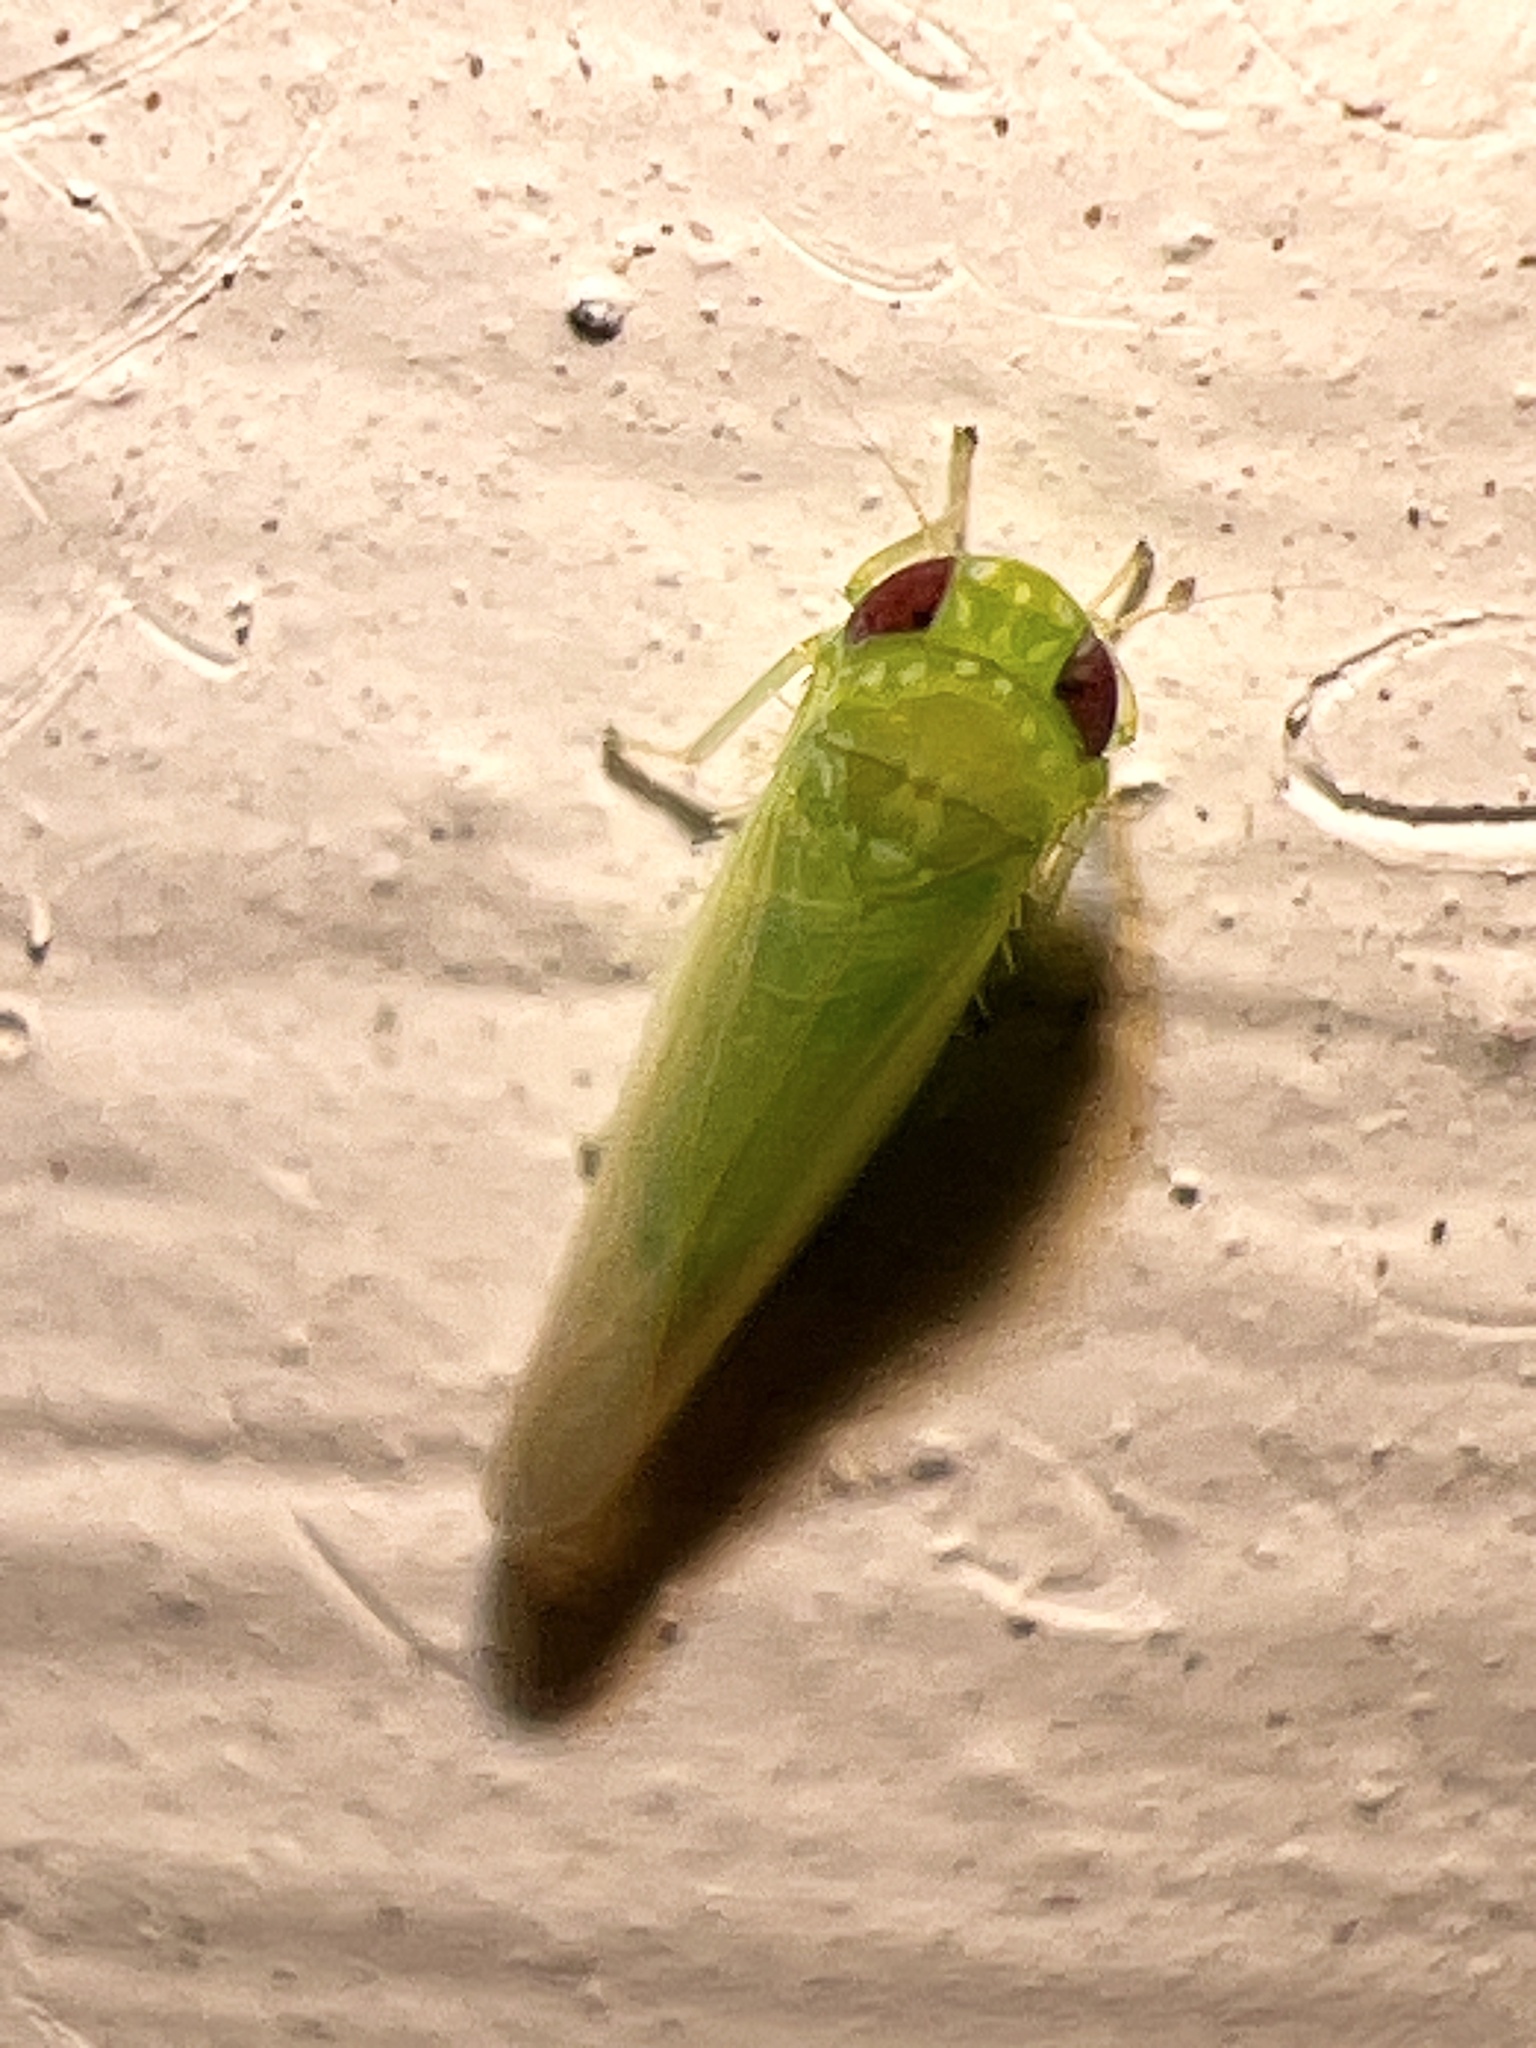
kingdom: Animalia
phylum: Arthropoda
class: Insecta
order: Hemiptera
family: Cicadellidae
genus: Empoasca
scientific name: Empoasca fabae
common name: Potato leafhopper
